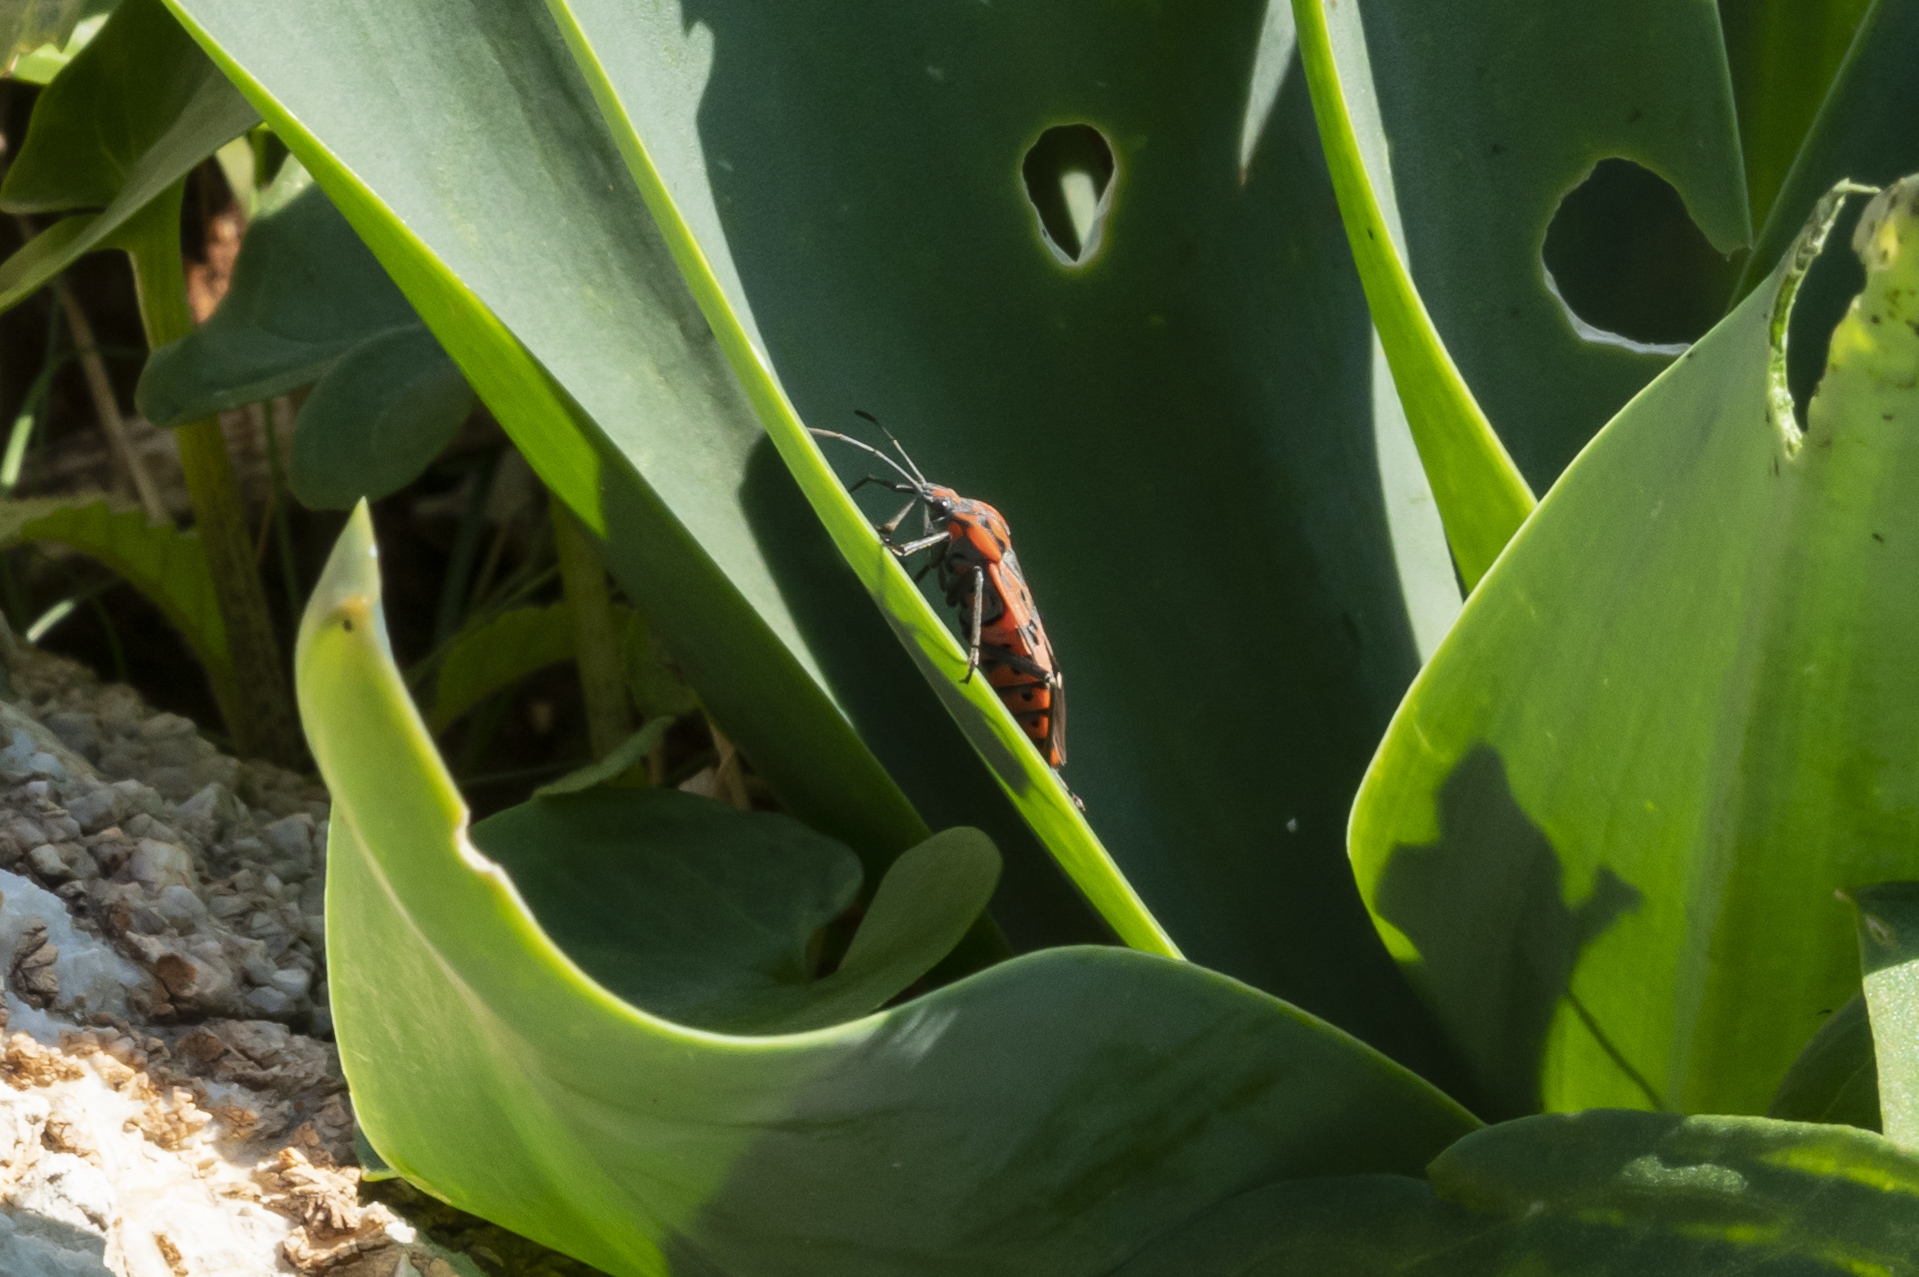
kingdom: Animalia
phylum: Arthropoda
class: Insecta
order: Hemiptera
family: Lygaeidae
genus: Spilostethus
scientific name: Spilostethus pandurus
